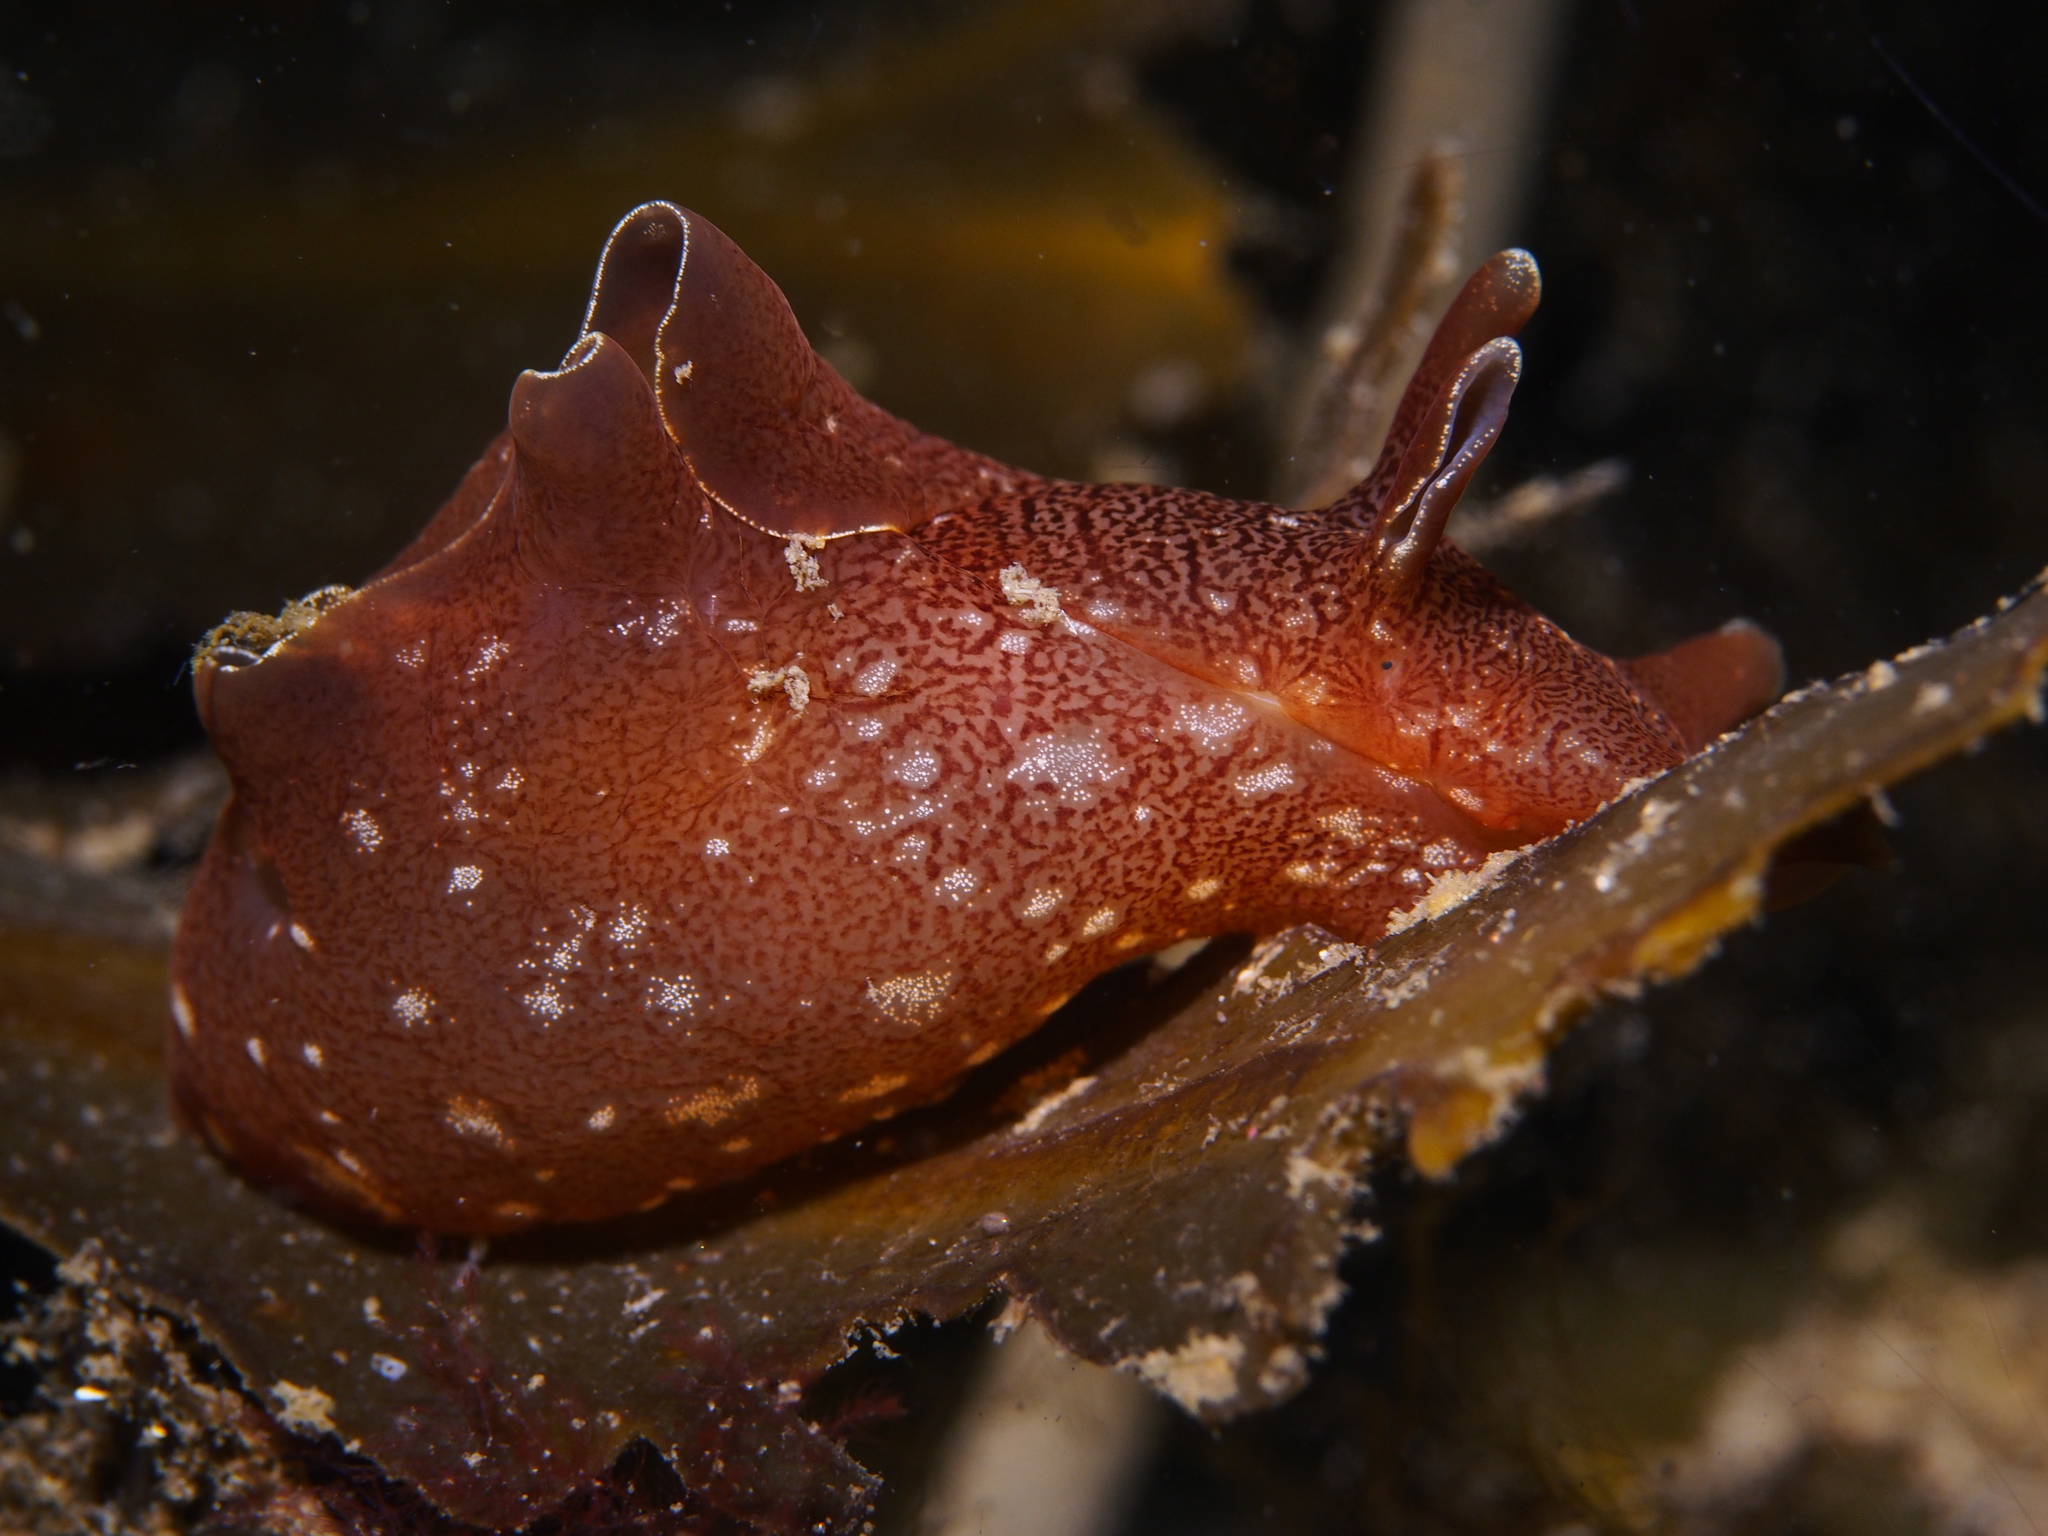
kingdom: Animalia
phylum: Mollusca
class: Gastropoda
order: Aplysiida
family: Aplysiidae
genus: Aplysia
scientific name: Aplysia punctata
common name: Common sea hare
